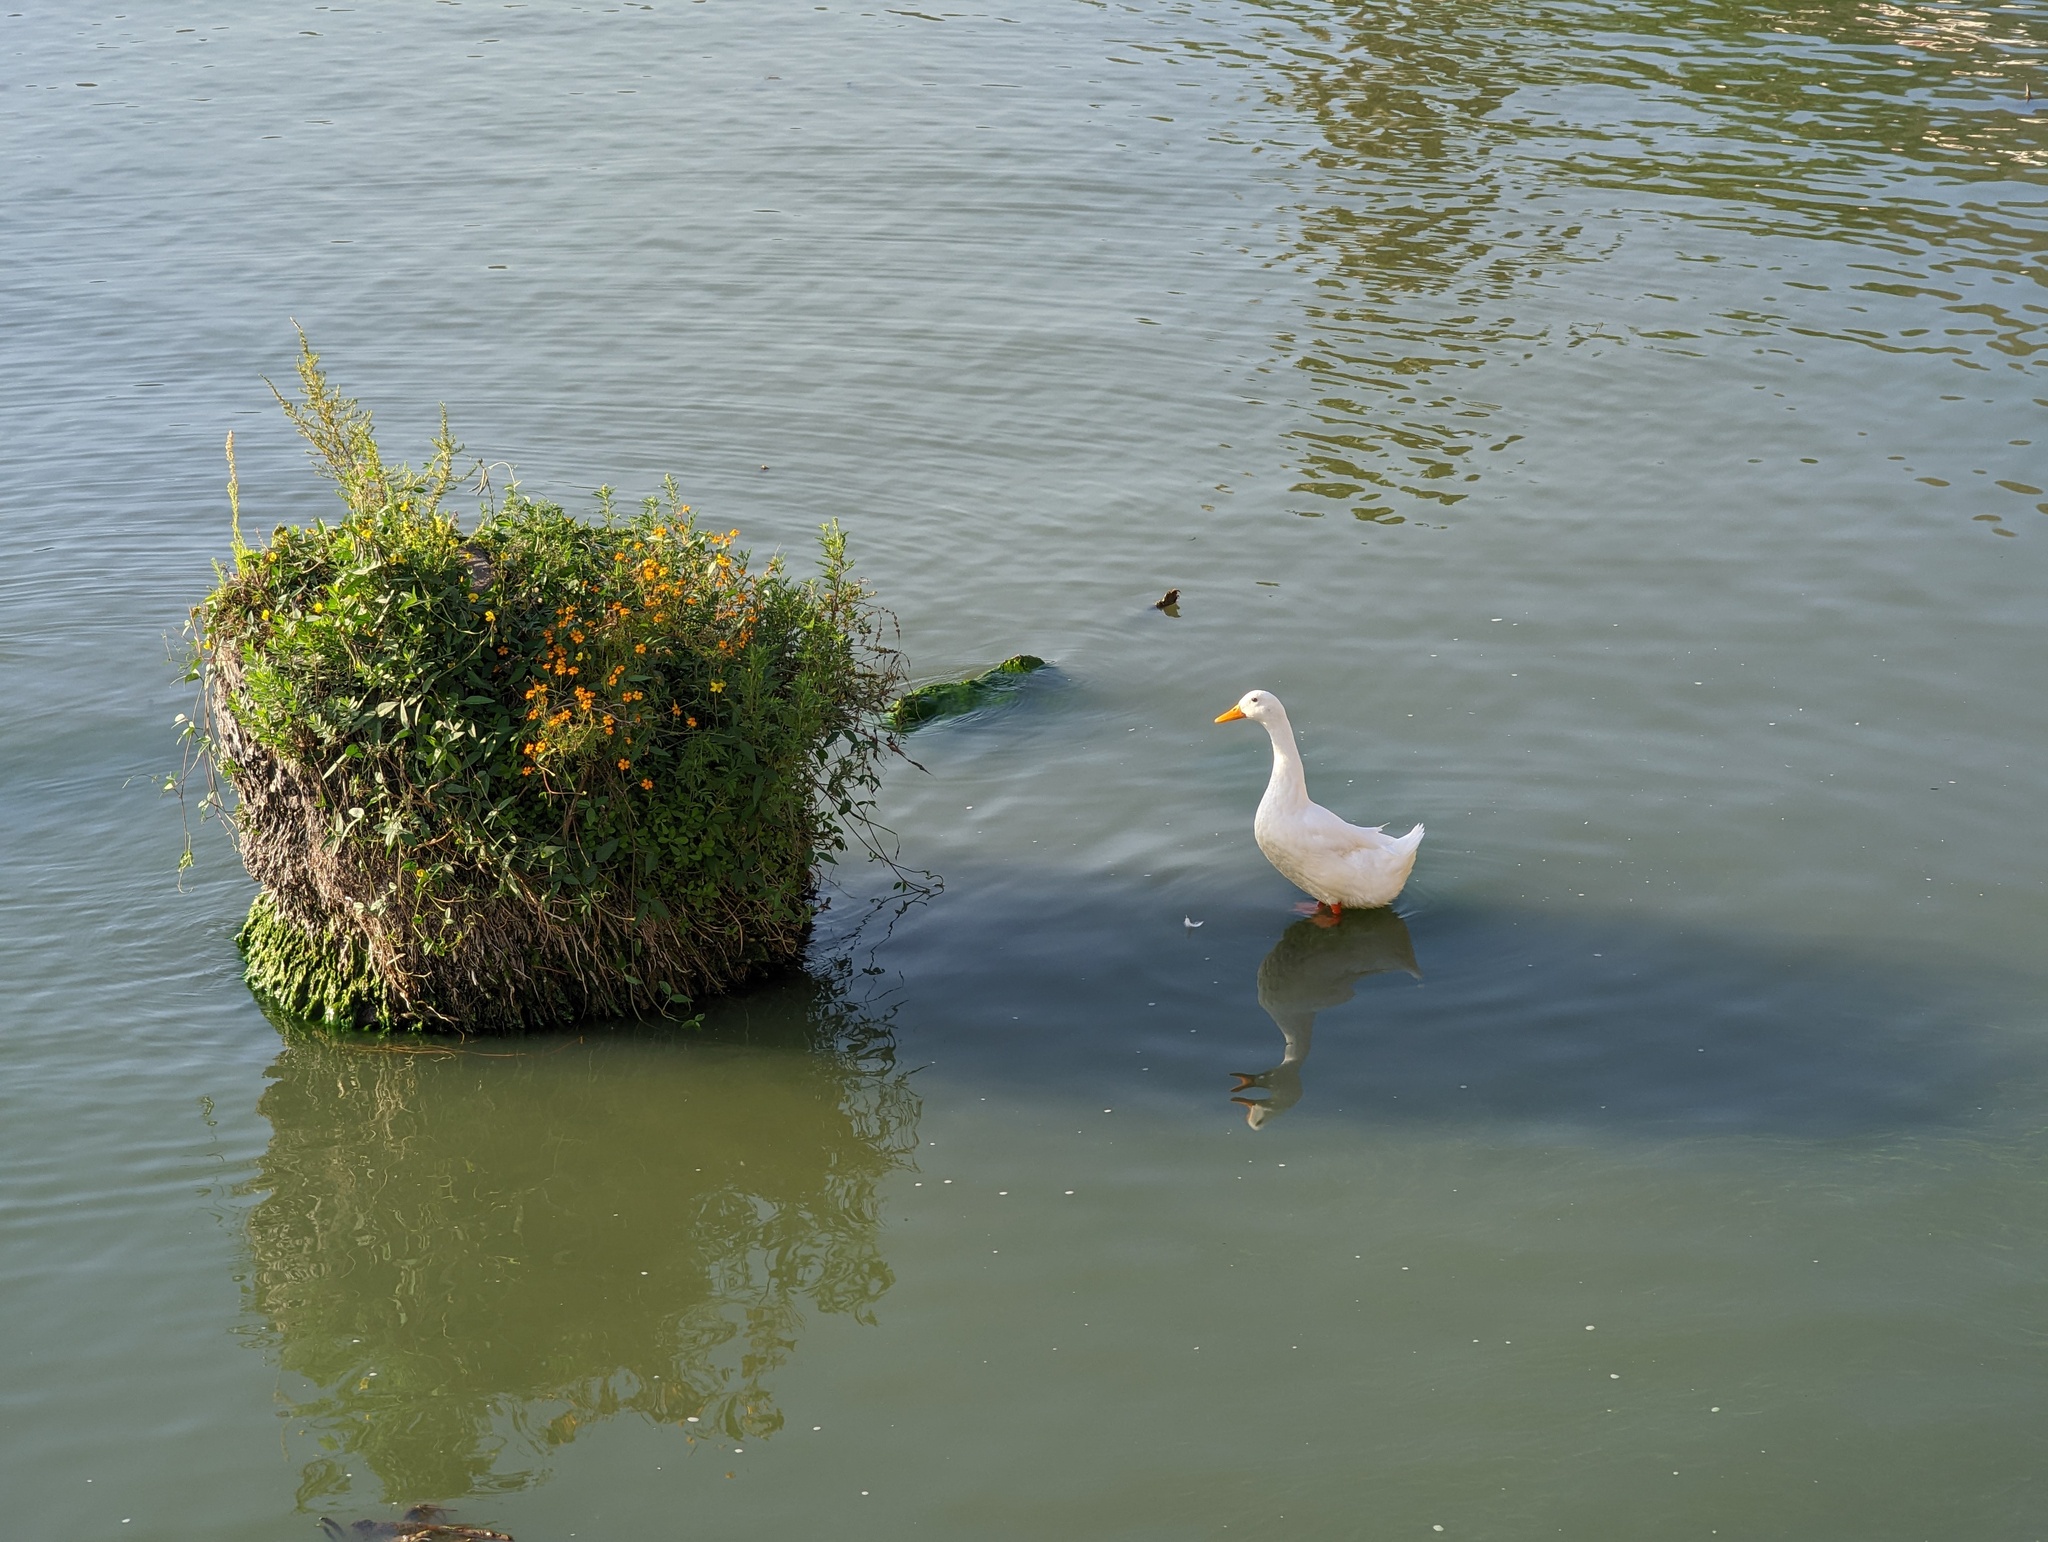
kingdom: Animalia
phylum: Chordata
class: Aves
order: Anseriformes
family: Anatidae
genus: Anas
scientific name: Anas platyrhynchos
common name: Mallard
